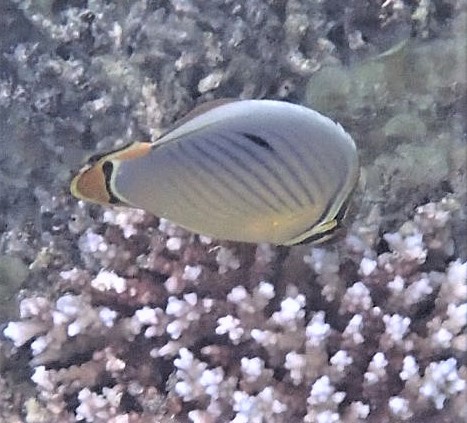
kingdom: Animalia
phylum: Chordata
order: Perciformes
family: Chaetodontidae
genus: Chaetodon
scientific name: Chaetodon trifasciatus
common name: Redfin butterflyfish
